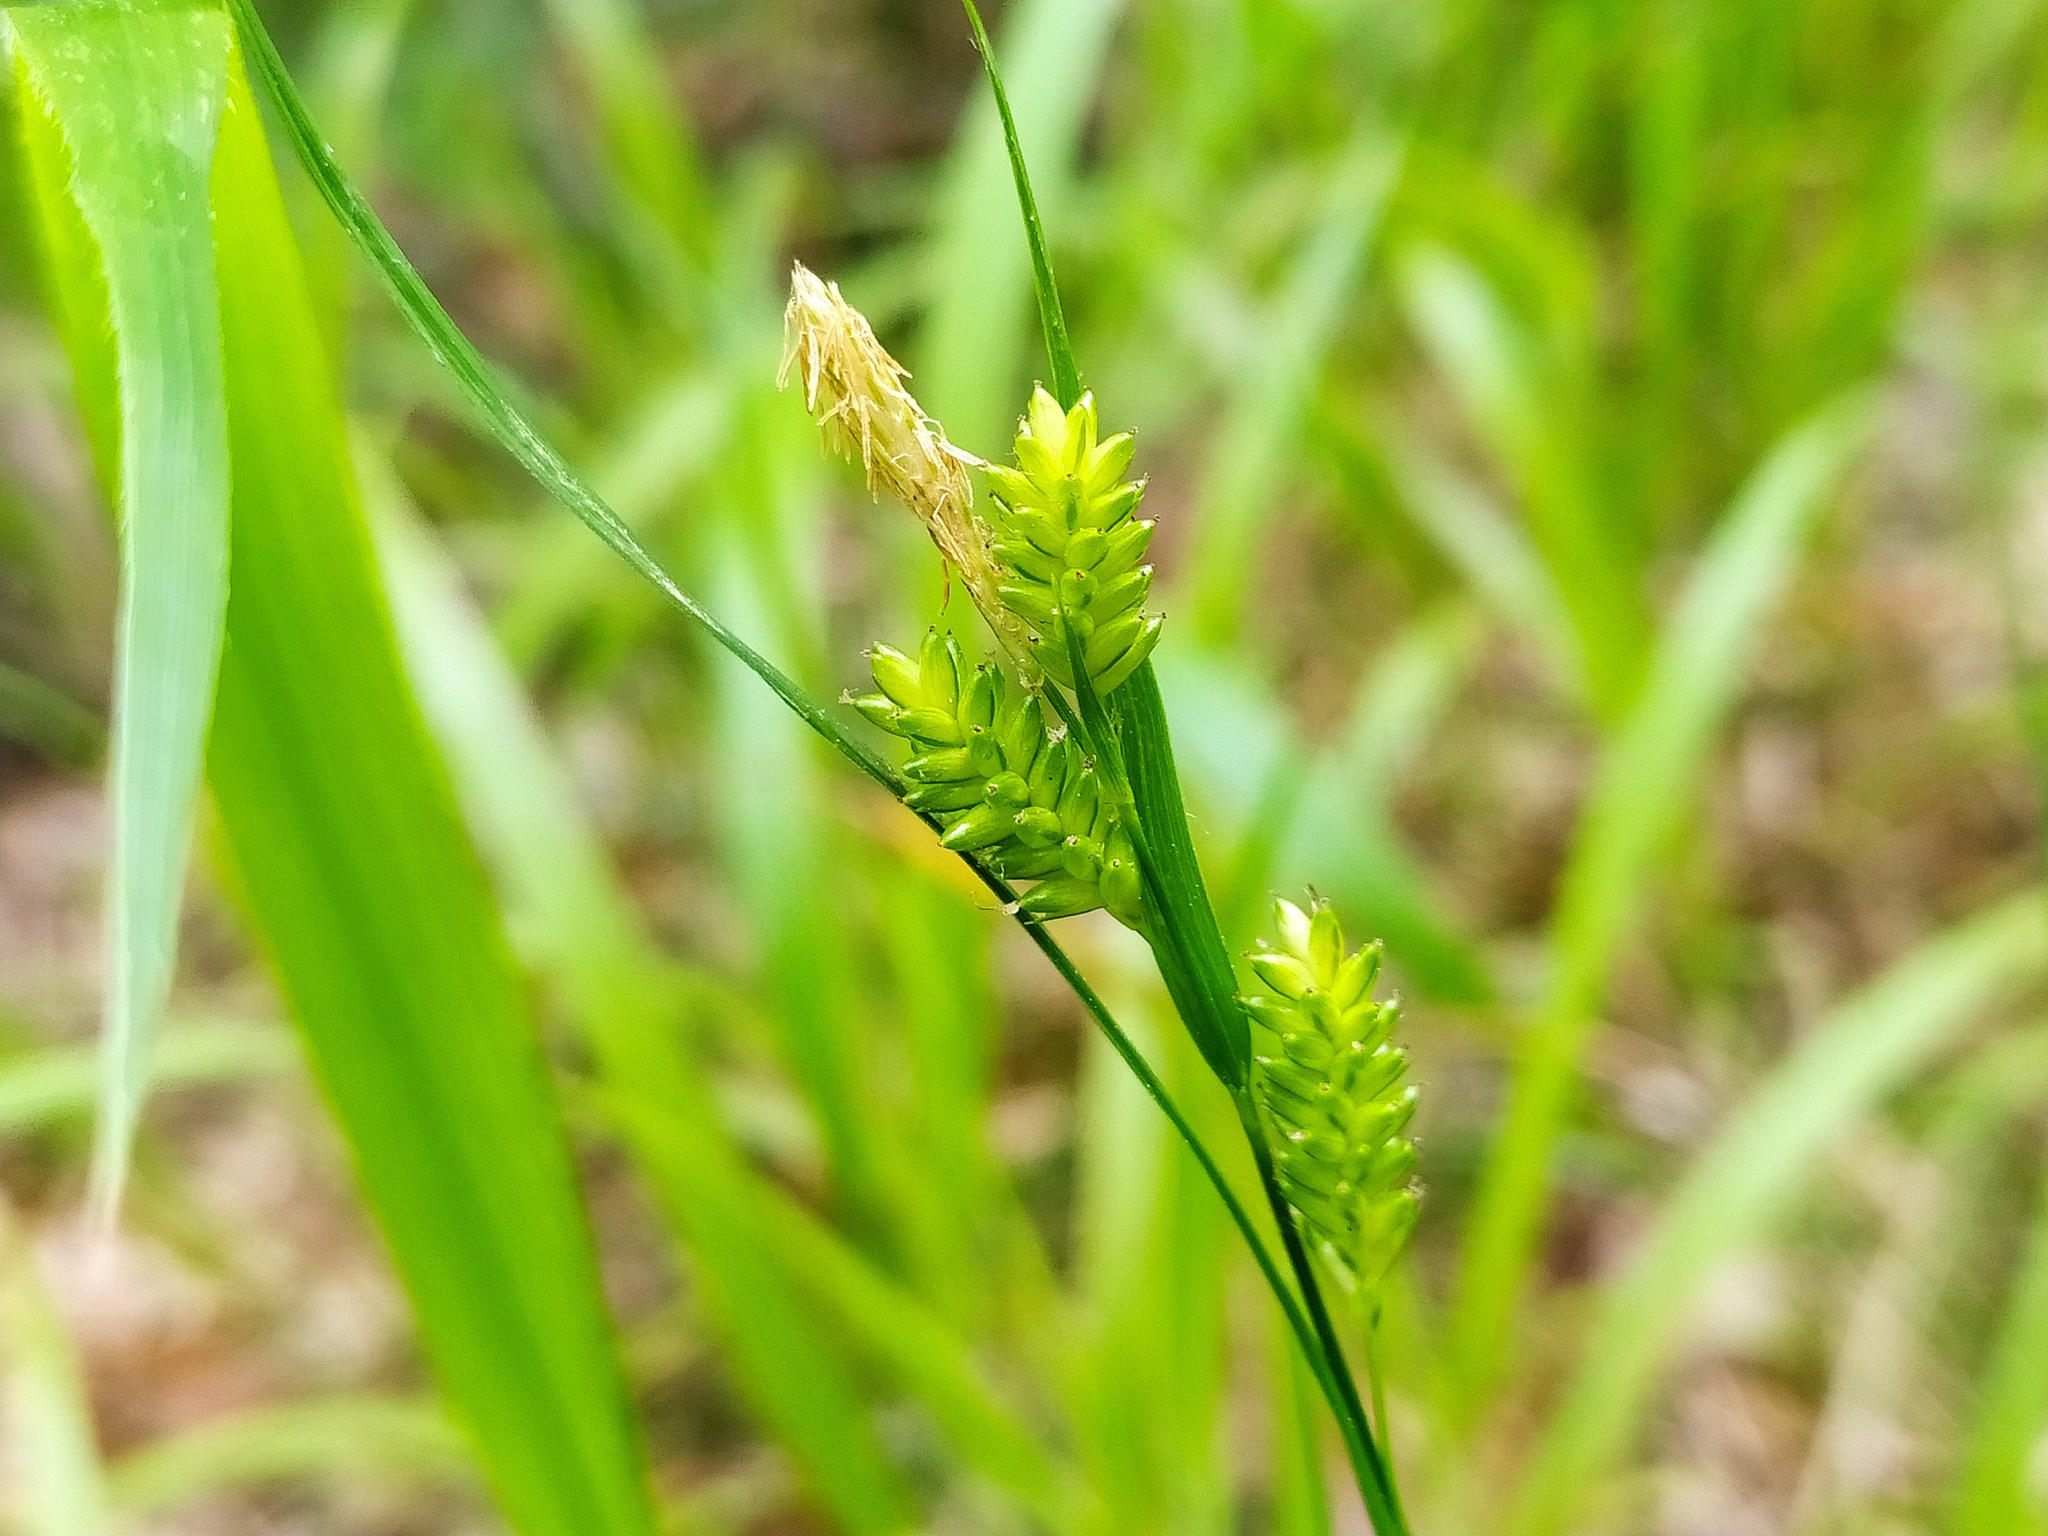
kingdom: Plantae
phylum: Tracheophyta
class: Liliopsida
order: Poales
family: Cyperaceae
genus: Carex
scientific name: Carex pallescens
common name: Pale sedge
